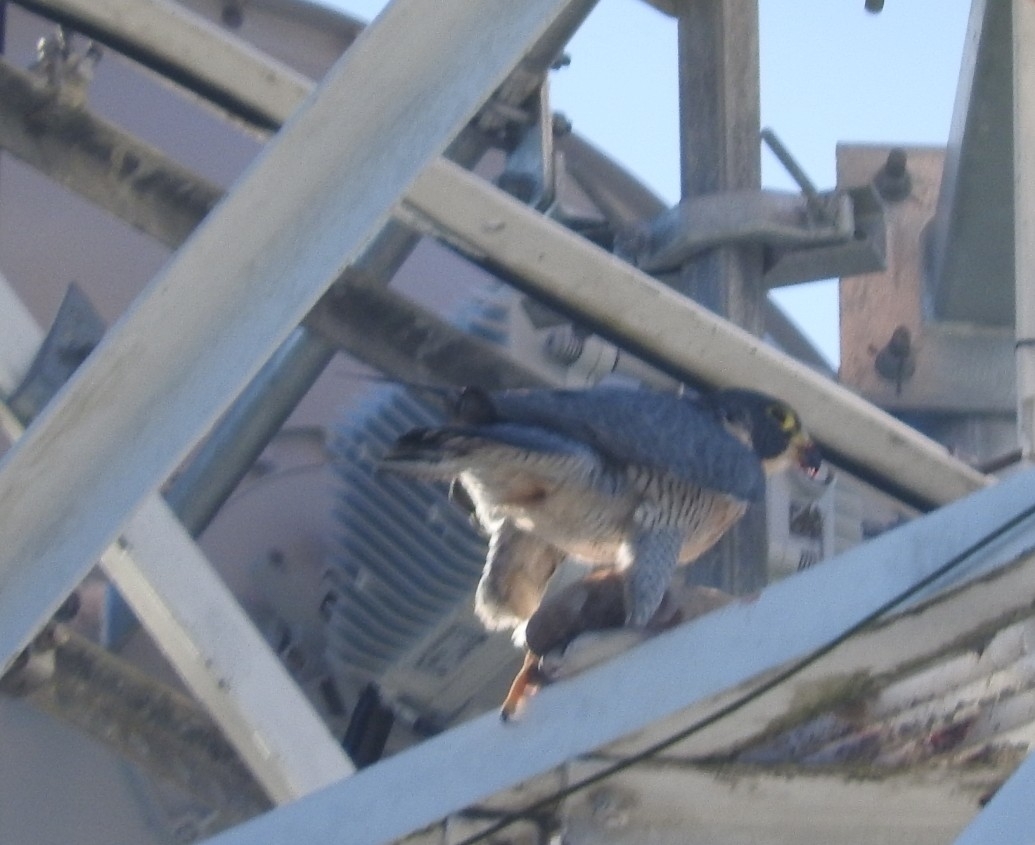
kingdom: Animalia
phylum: Chordata
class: Aves
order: Columbiformes
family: Columbidae
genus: Columba
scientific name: Columba livia
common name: Rock pigeon
